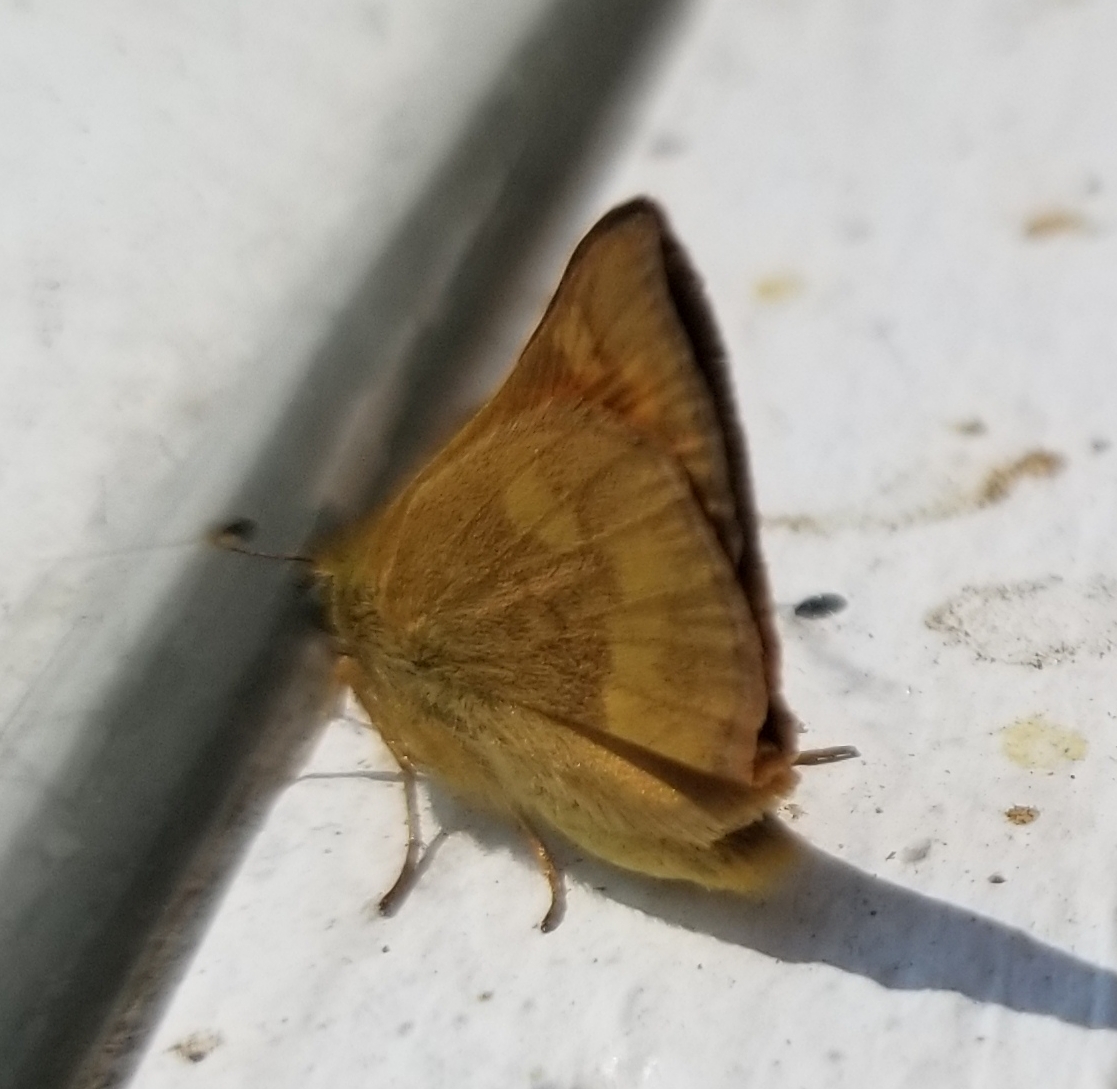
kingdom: Animalia
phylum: Arthropoda
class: Insecta
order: Lepidoptera
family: Hesperiidae
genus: Ochlodes
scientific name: Ochlodes sylvanoides
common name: Woodland skipper
